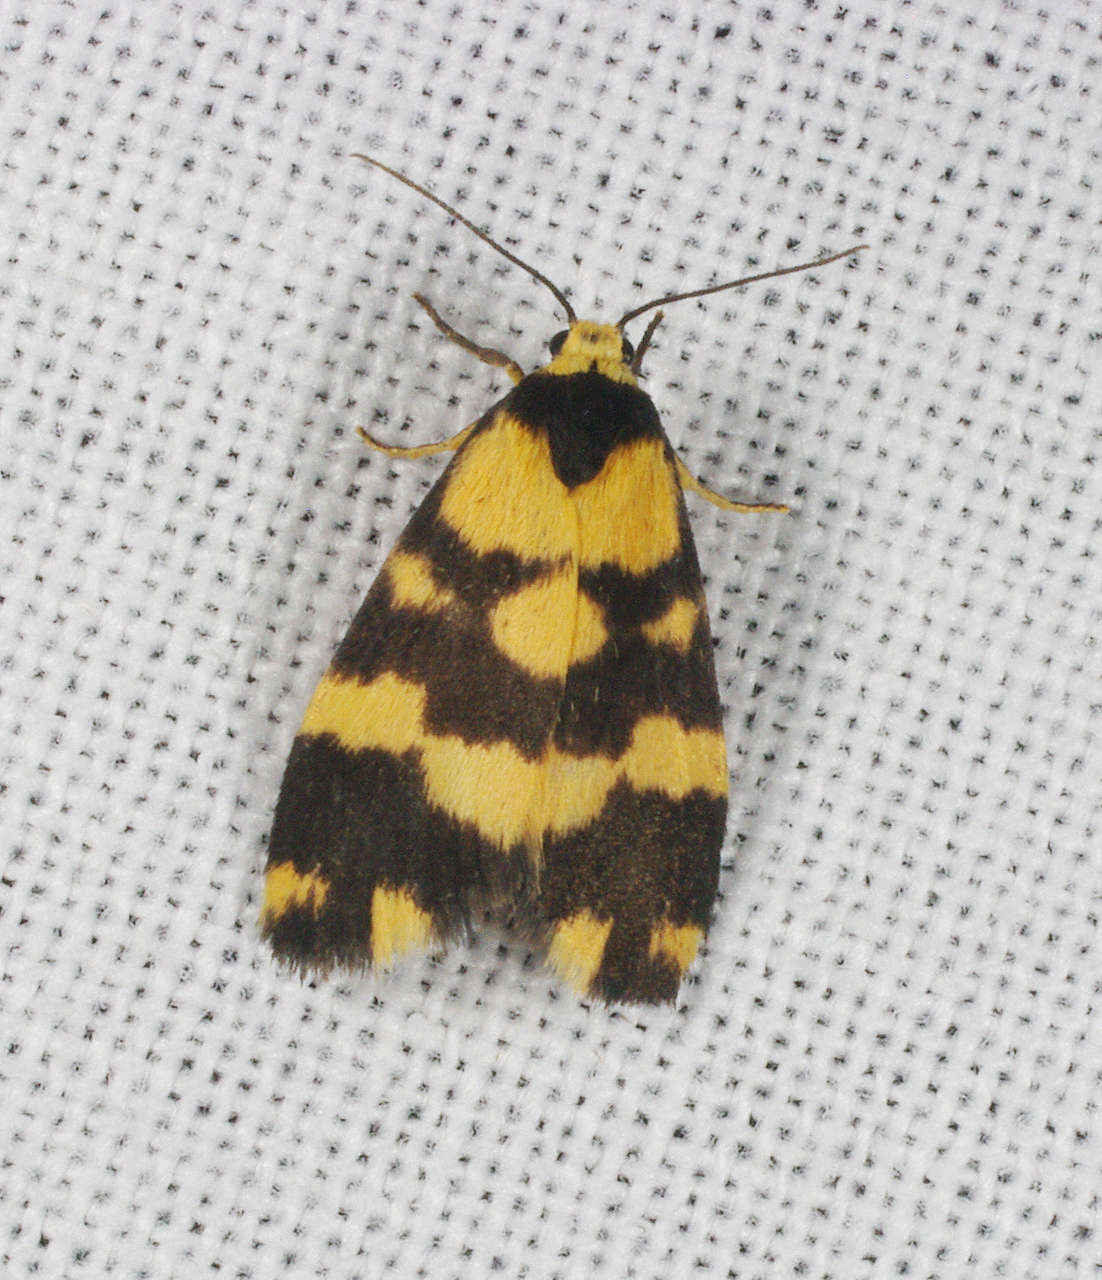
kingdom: Animalia
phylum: Arthropoda
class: Insecta
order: Lepidoptera
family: Erebidae
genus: Thallarcha
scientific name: Thallarcha partita
